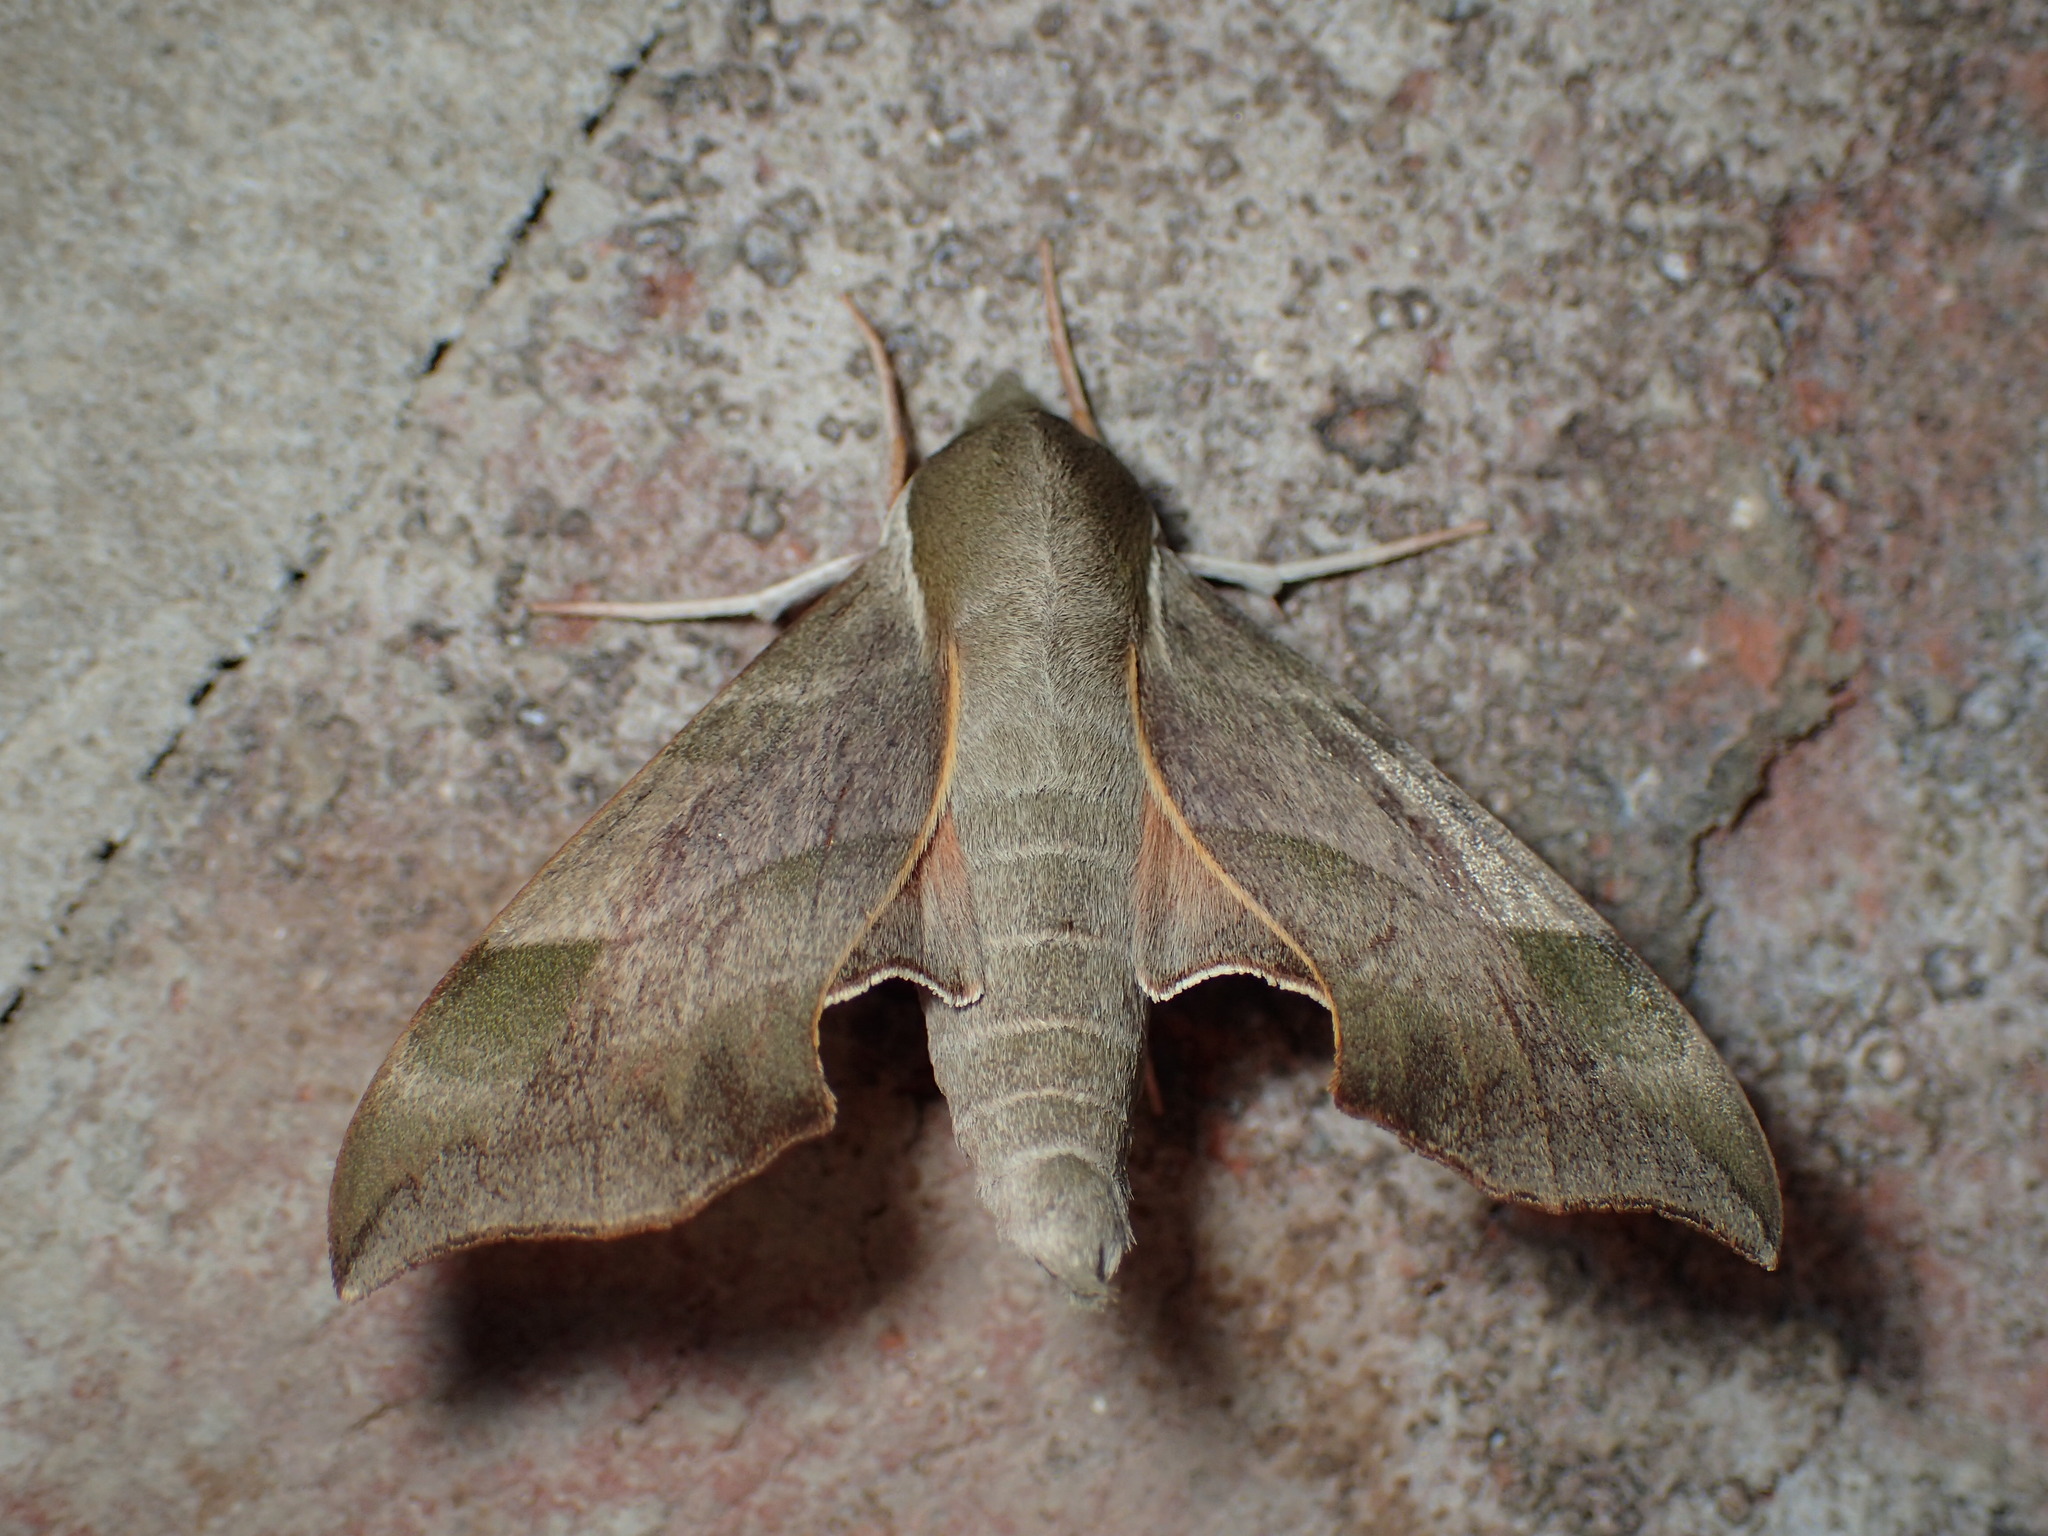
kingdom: Animalia
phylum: Arthropoda
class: Insecta
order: Lepidoptera
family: Sphingidae
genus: Darapsa
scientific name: Darapsa myron
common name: Hog sphinx
